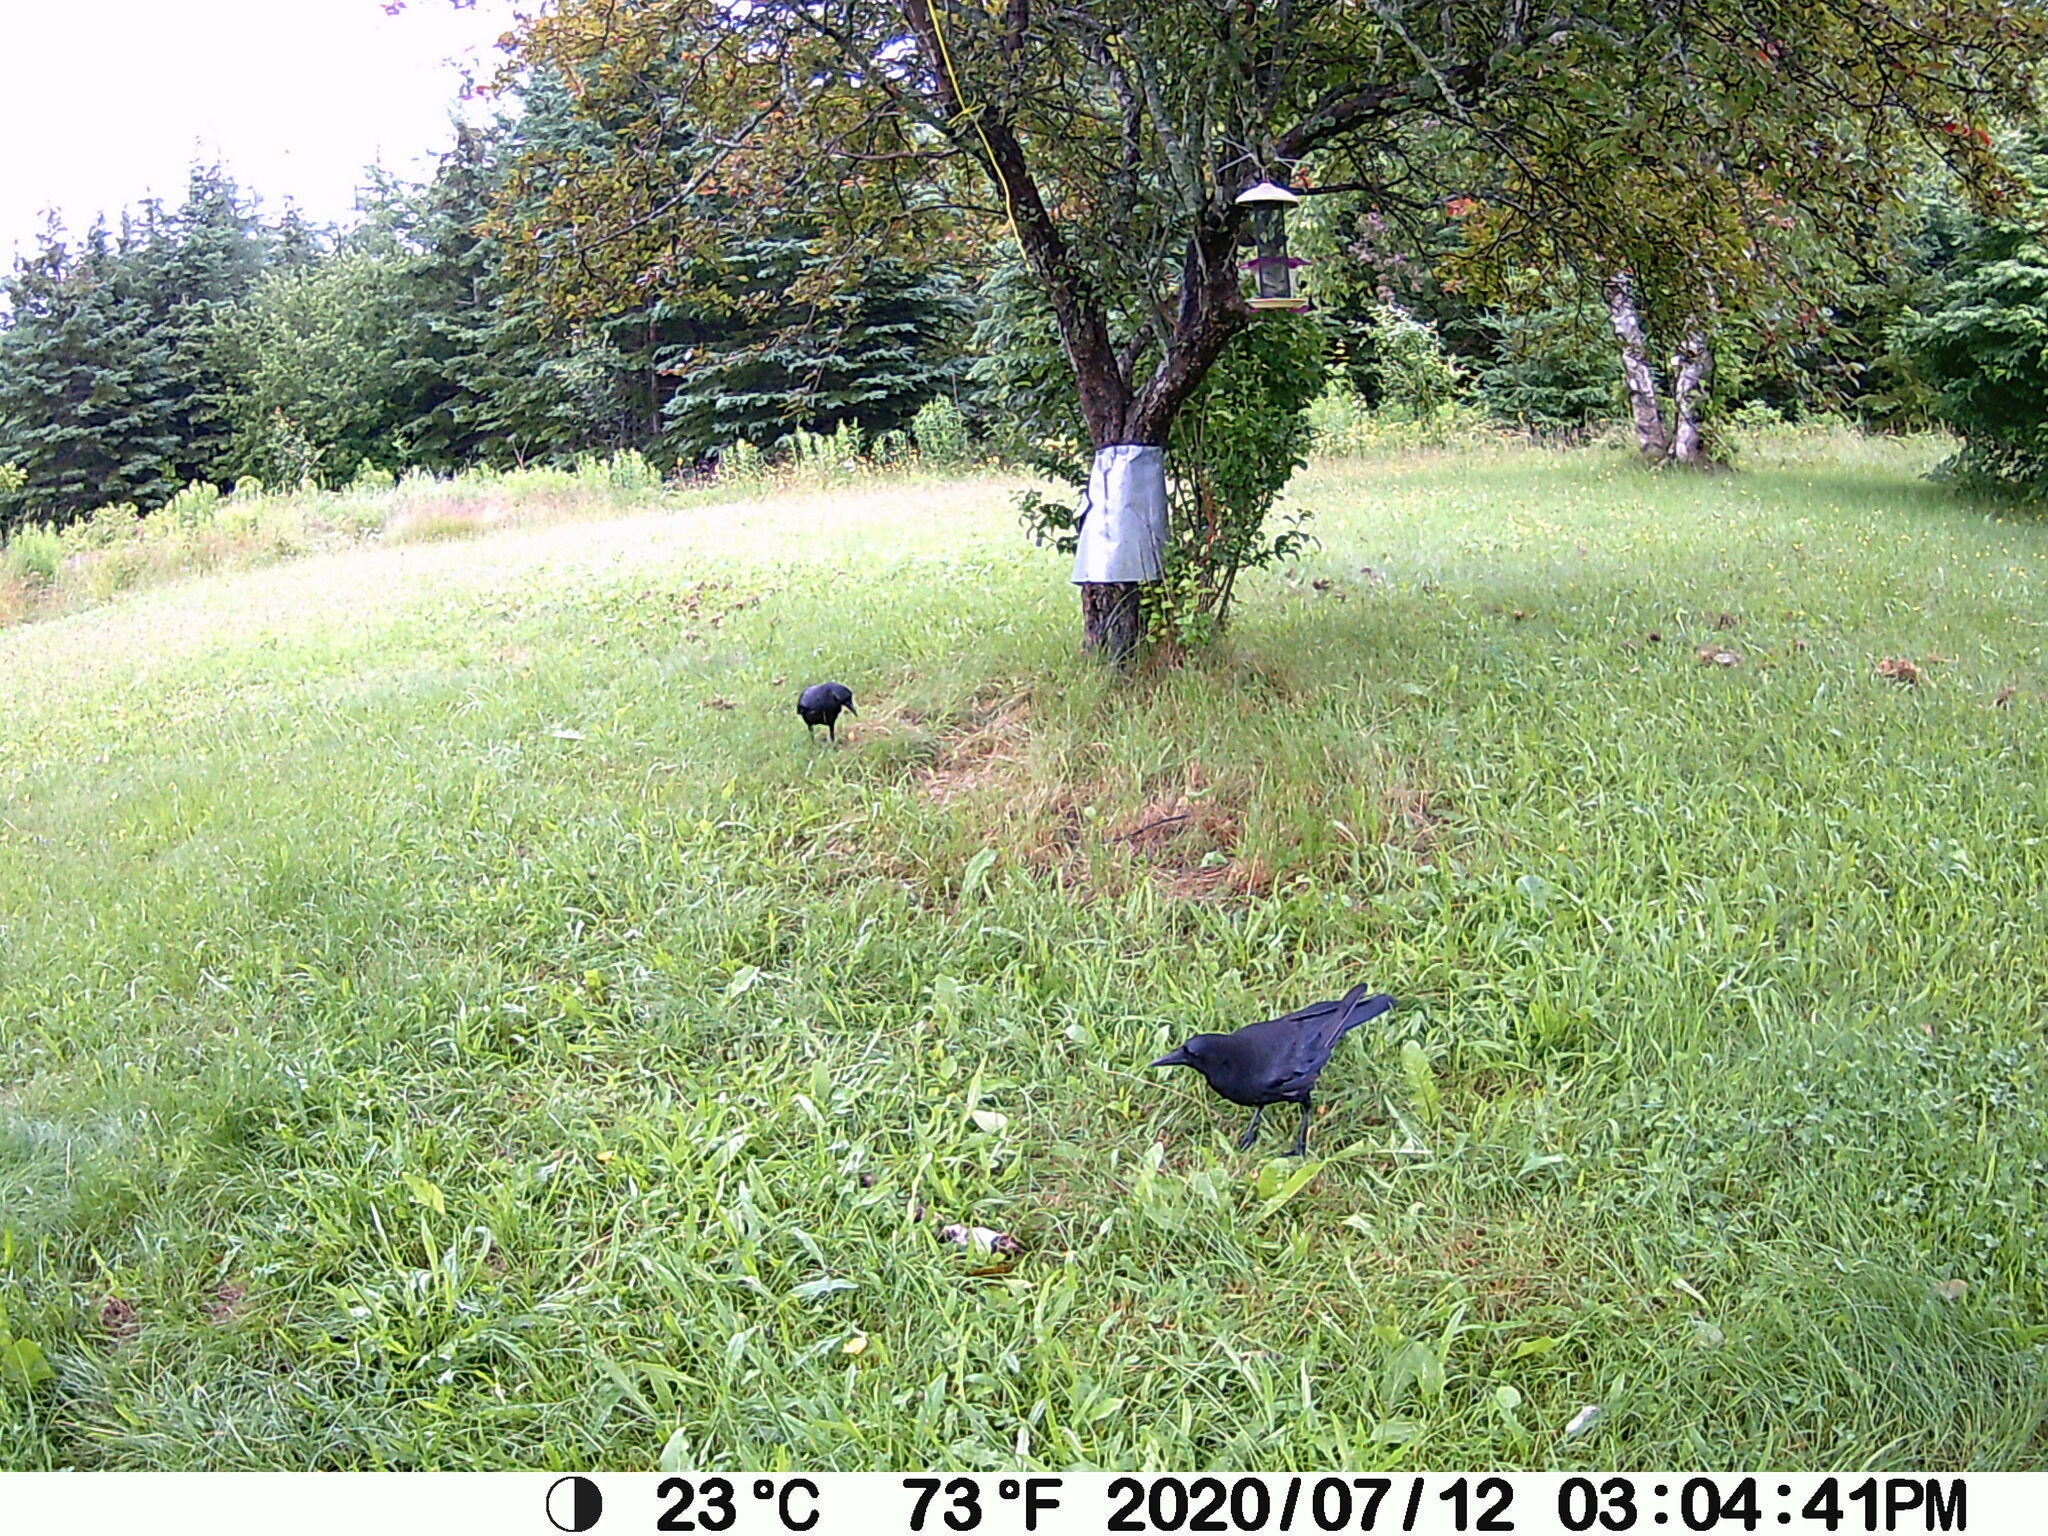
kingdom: Animalia
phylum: Chordata
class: Aves
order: Passeriformes
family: Corvidae
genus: Corvus
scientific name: Corvus brachyrhynchos
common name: American crow
